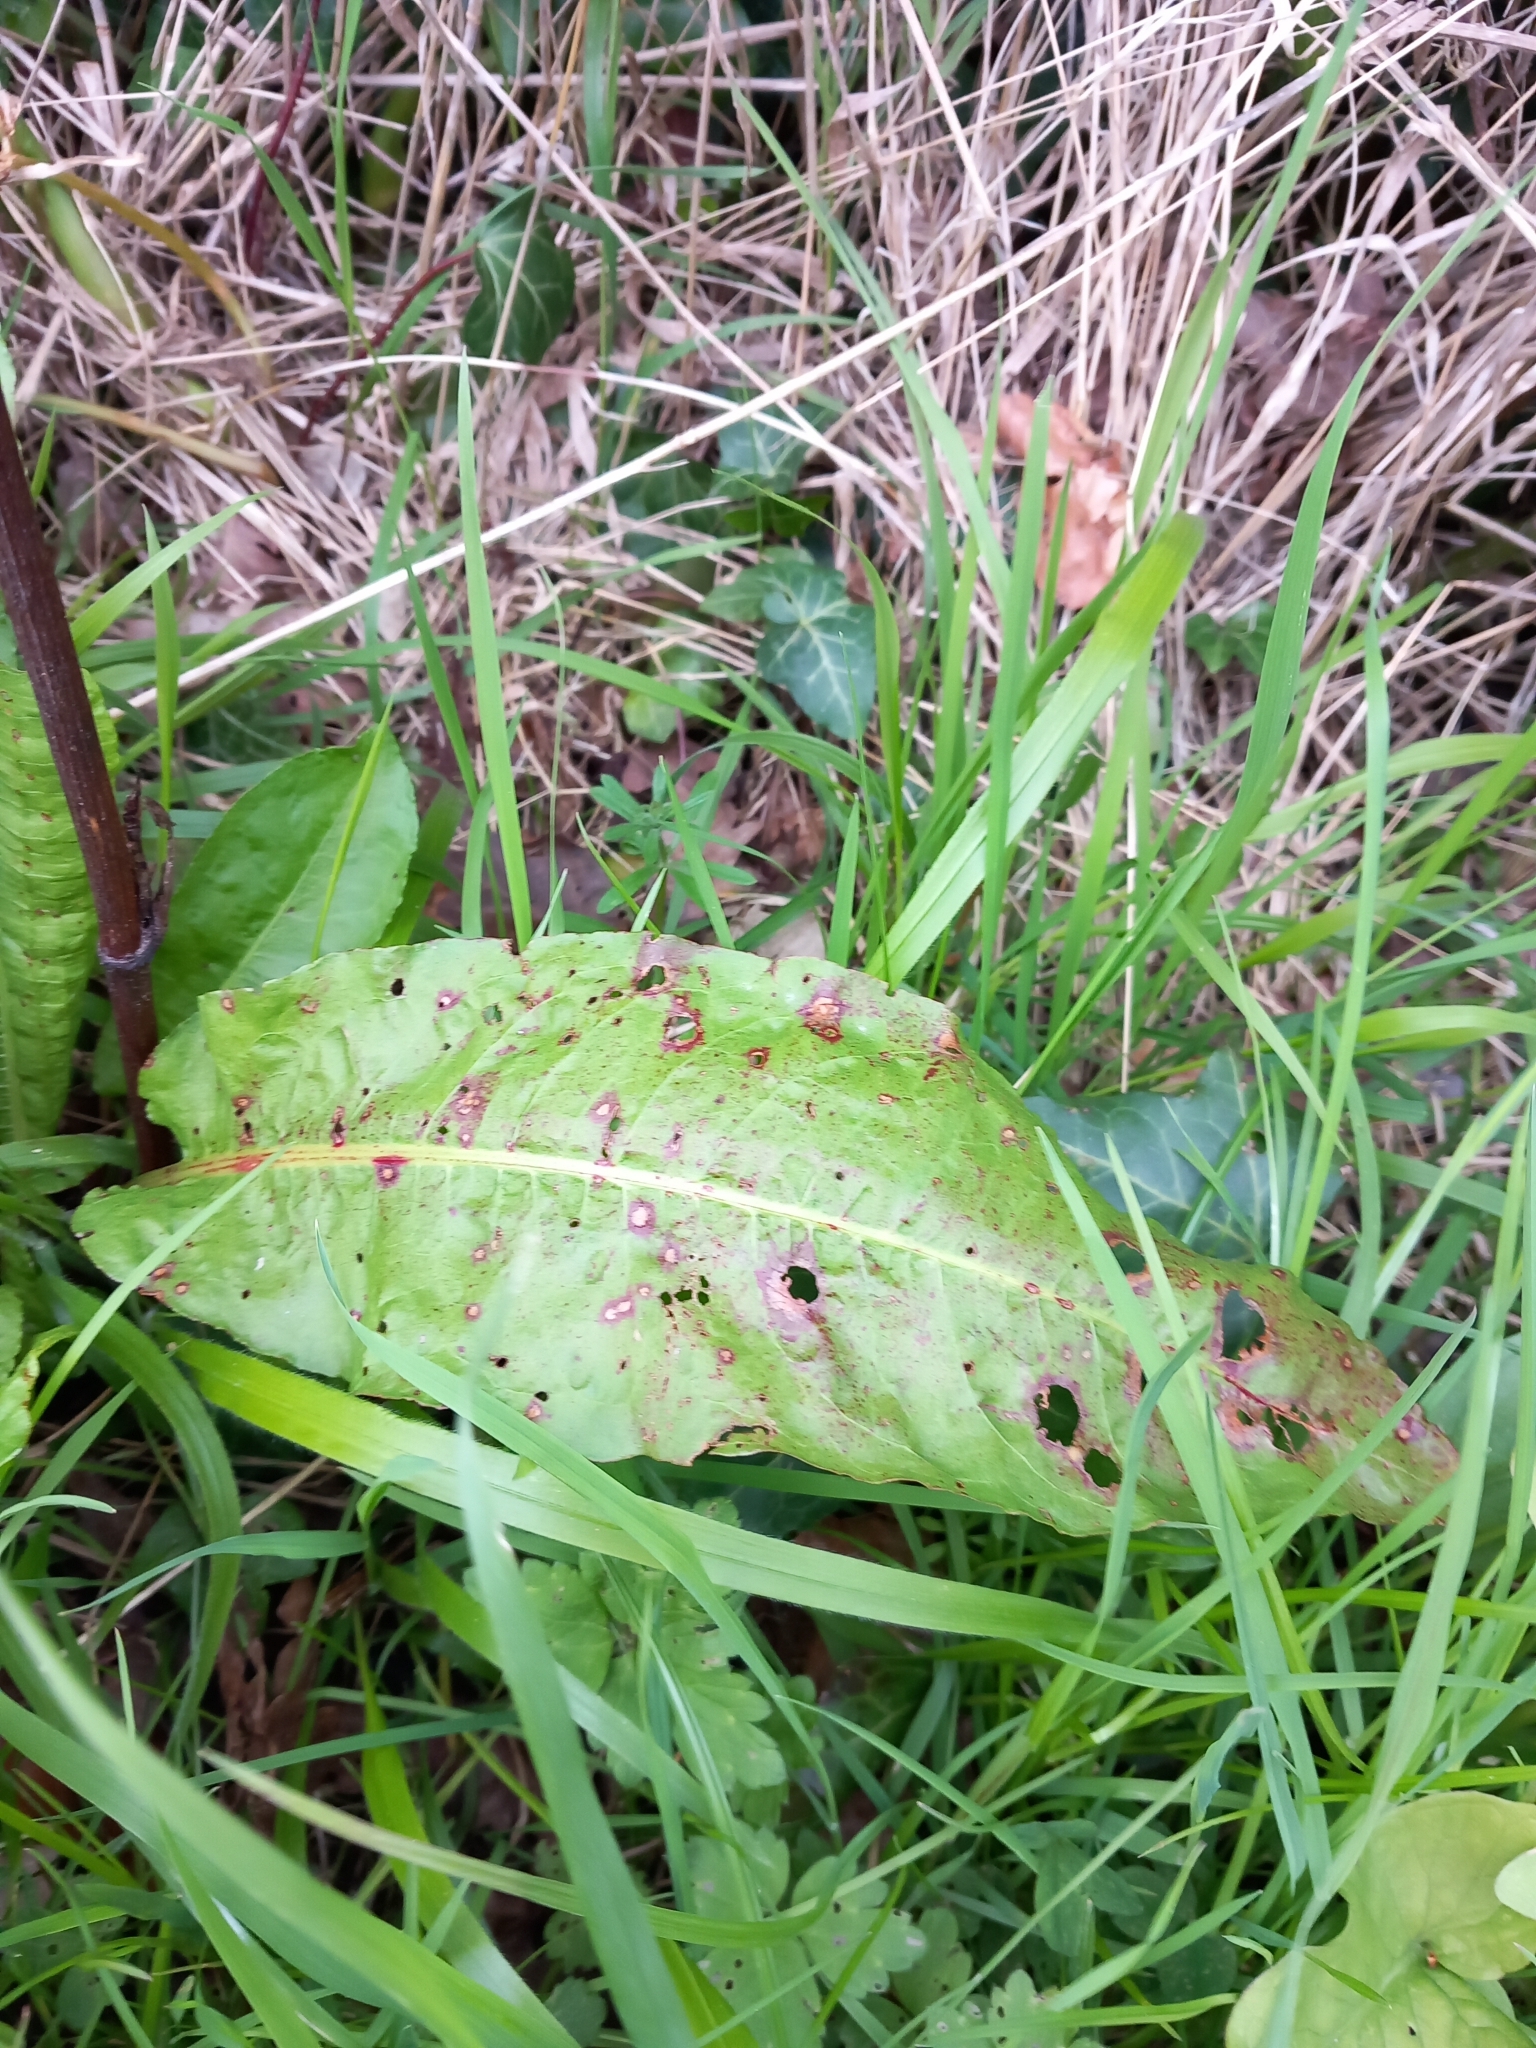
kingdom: Plantae
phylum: Tracheophyta
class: Magnoliopsida
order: Caryophyllales
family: Polygonaceae
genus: Rumex
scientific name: Rumex obtusifolius
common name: Bitter dock
